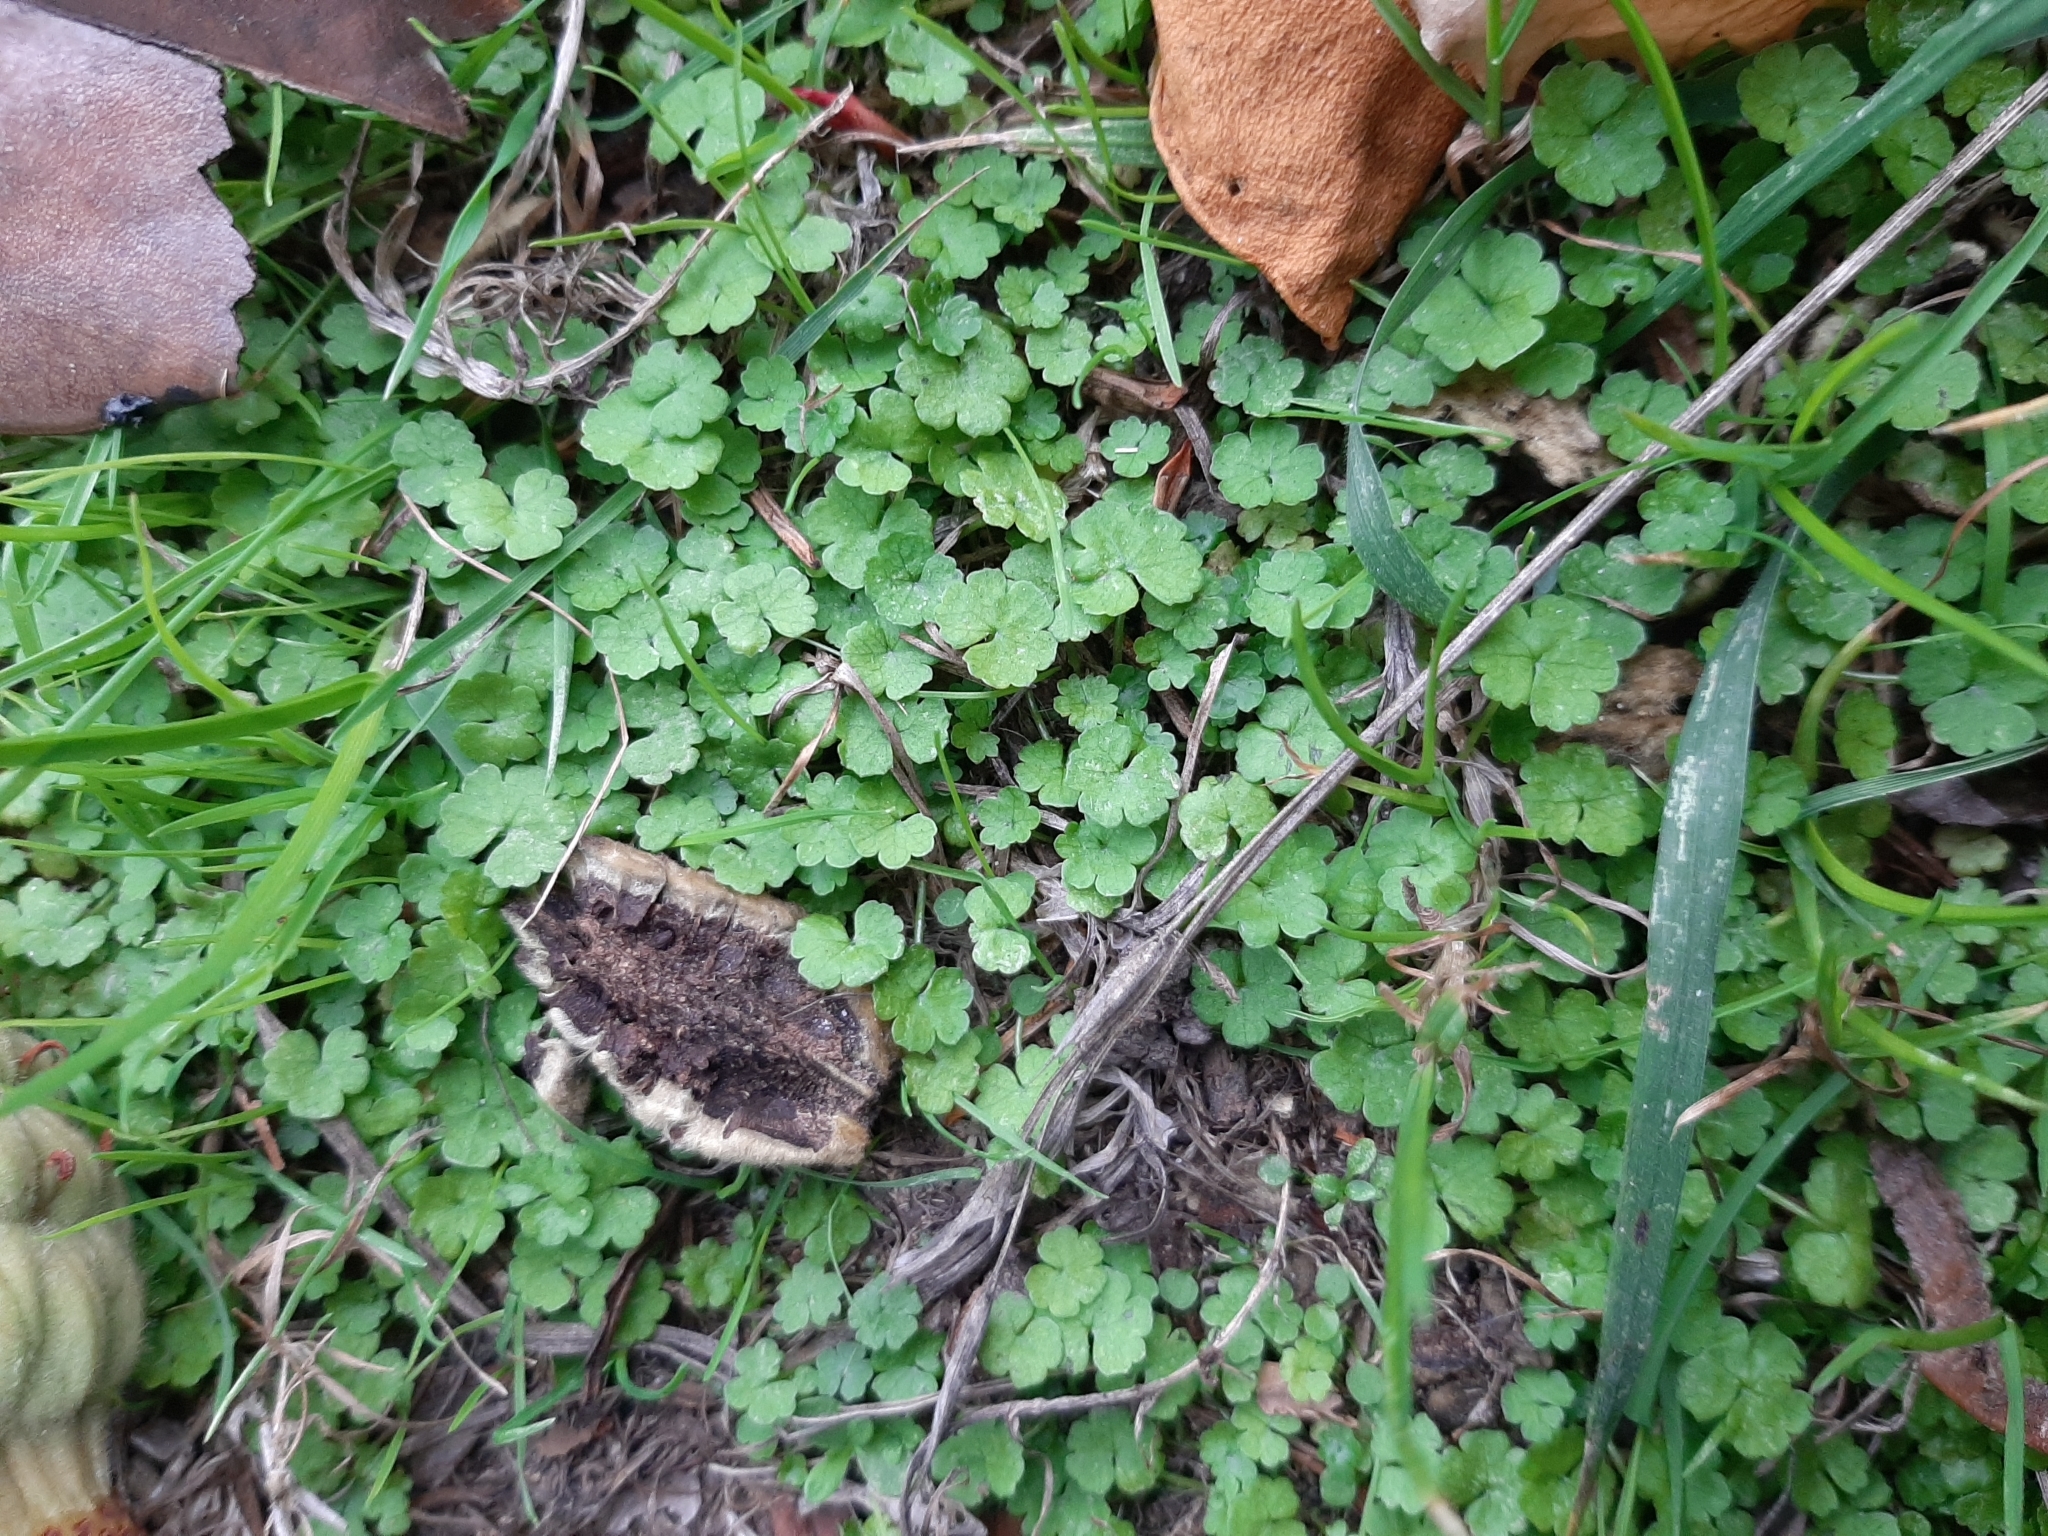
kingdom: Plantae
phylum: Tracheophyta
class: Magnoliopsida
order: Apiales
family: Araliaceae
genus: Hydrocotyle
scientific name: Hydrocotyle heteromeria
